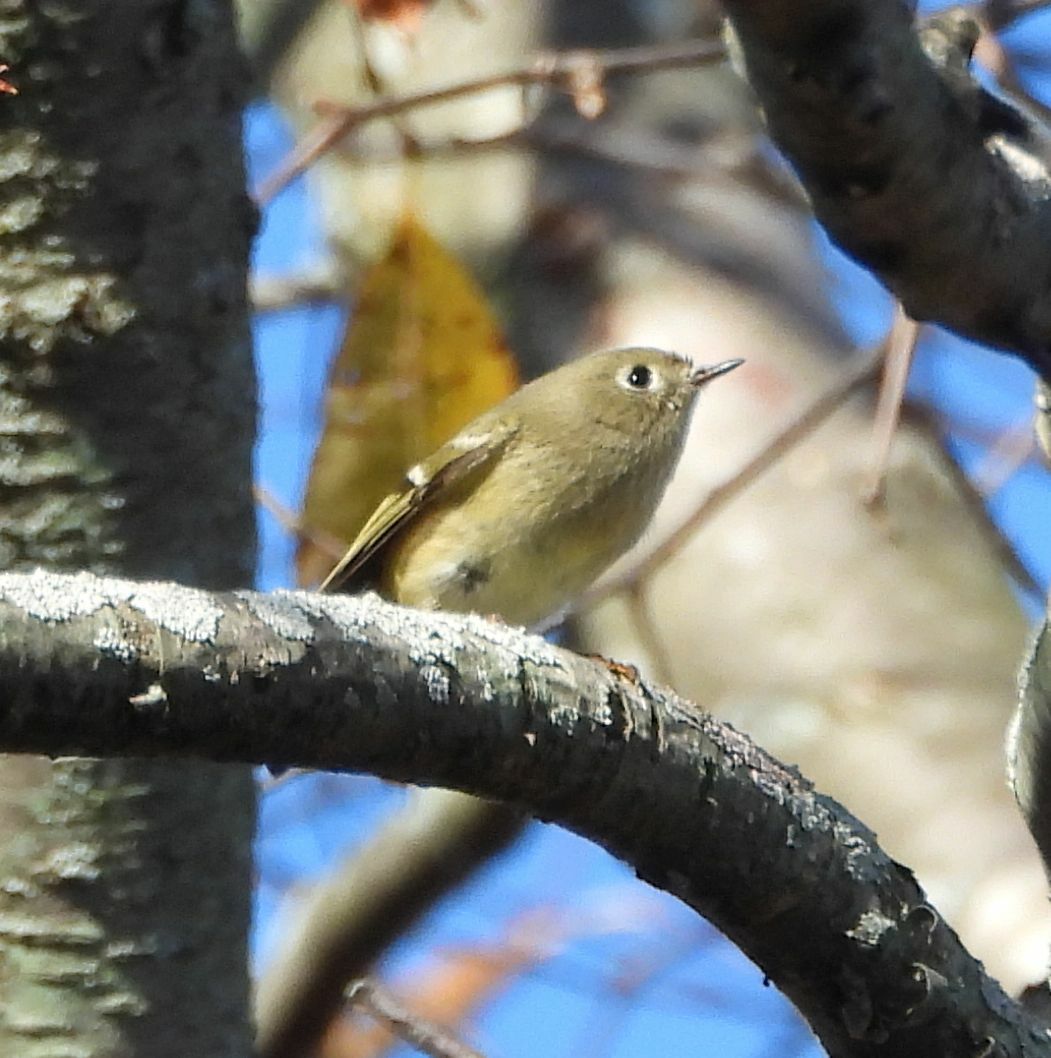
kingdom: Animalia
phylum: Chordata
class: Aves
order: Passeriformes
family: Regulidae
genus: Regulus
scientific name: Regulus calendula
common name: Ruby-crowned kinglet
